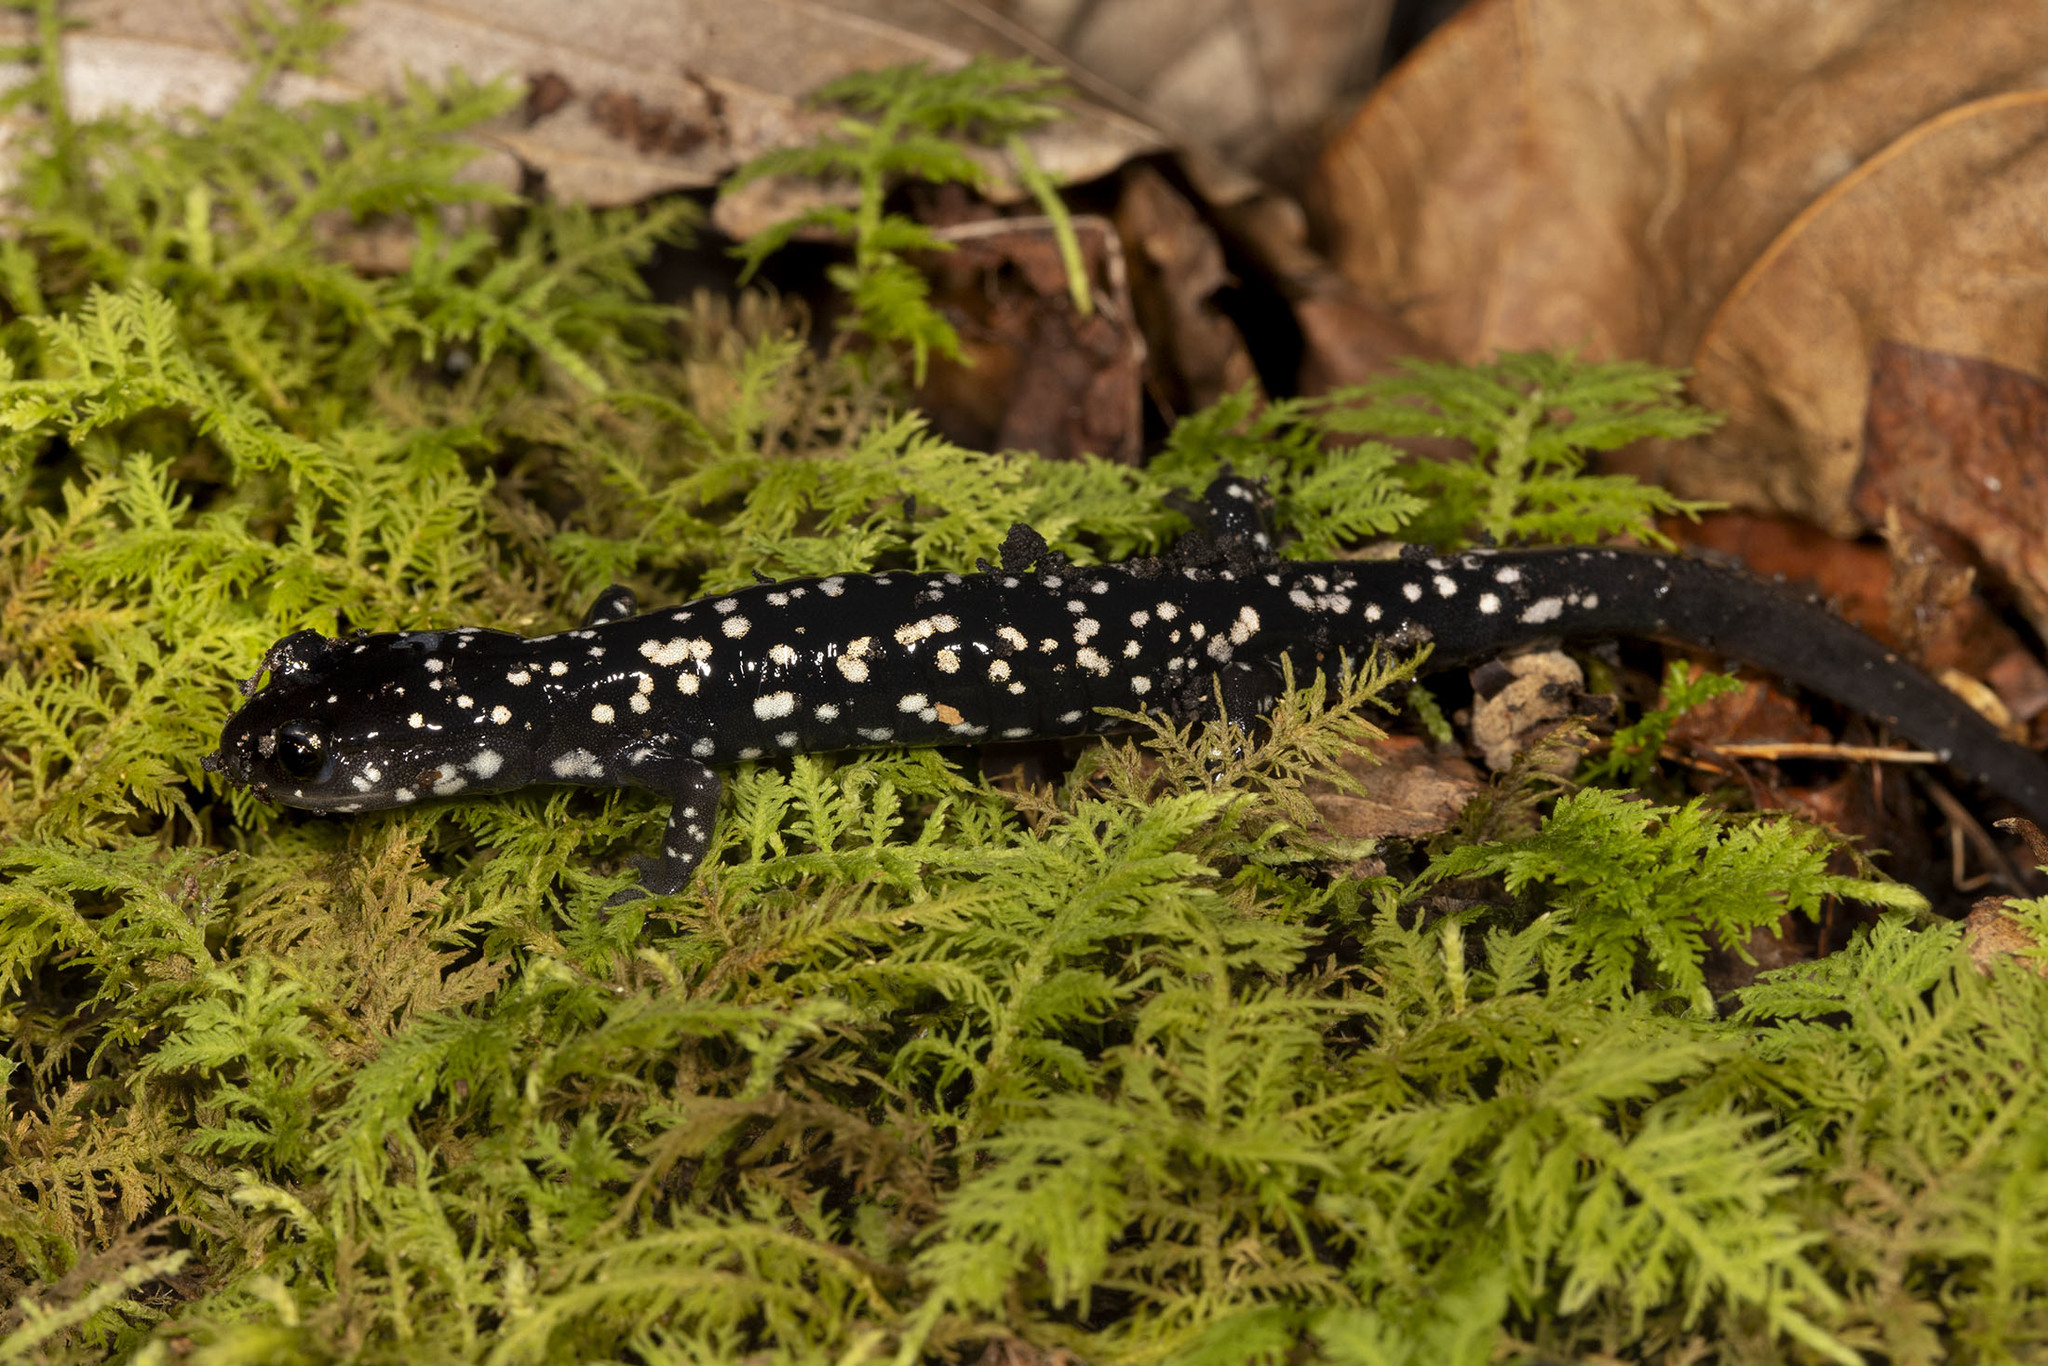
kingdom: Animalia
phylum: Chordata
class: Amphibia
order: Caudata
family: Plethodontidae
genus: Plethodon
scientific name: Plethodon glutinosus
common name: Northern slimy salamander
